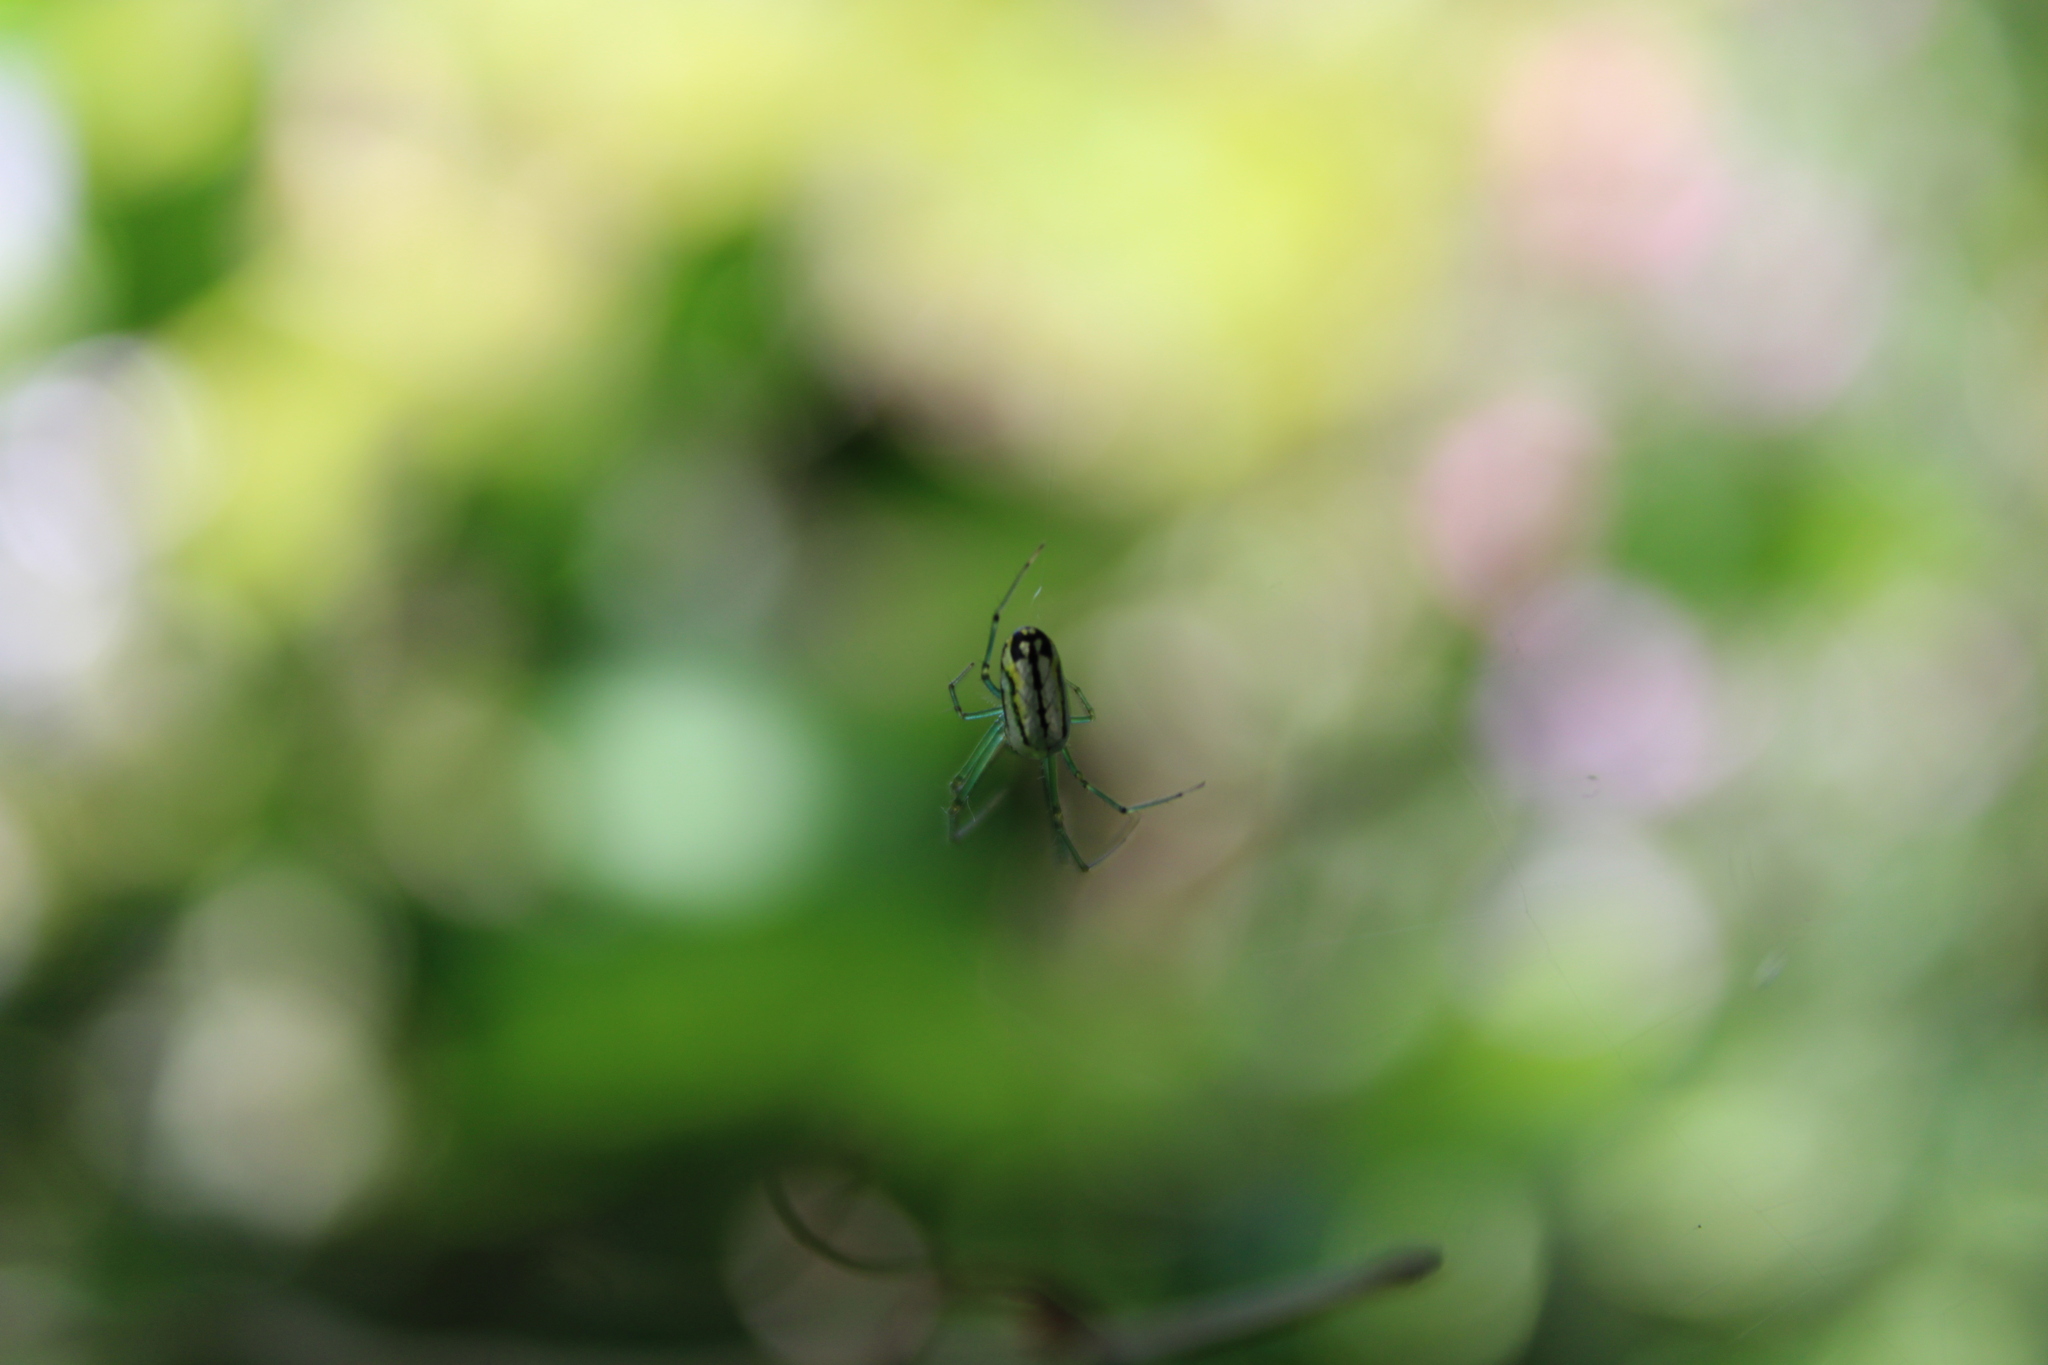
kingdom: Animalia
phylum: Arthropoda
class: Arachnida
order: Araneae
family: Tetragnathidae
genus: Leucauge
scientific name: Leucauge venusta
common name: Longjawed orb weavers
